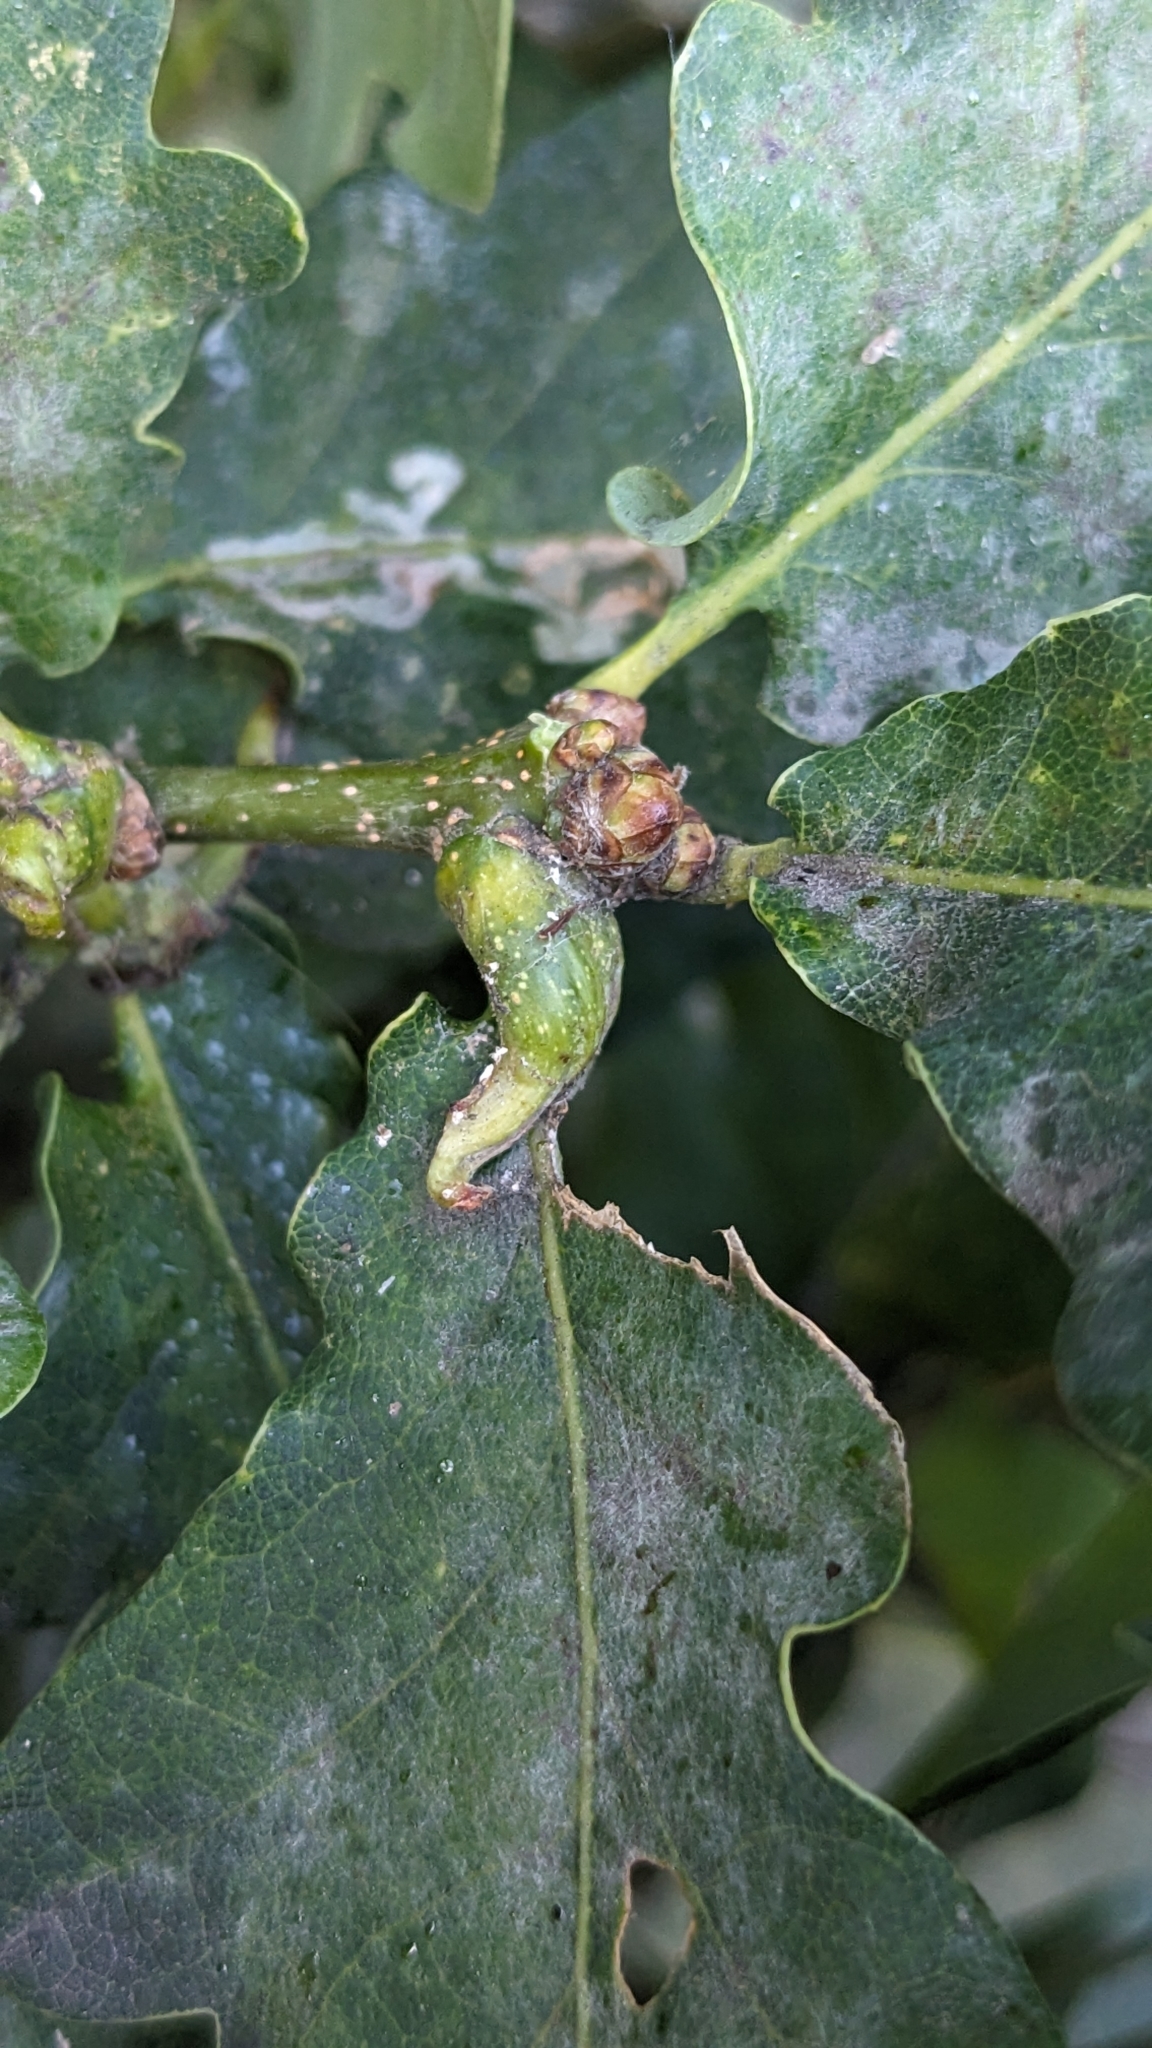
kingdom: Animalia
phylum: Arthropoda
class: Insecta
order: Hymenoptera
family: Cynipidae
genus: Andricus
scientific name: Andricus aries
